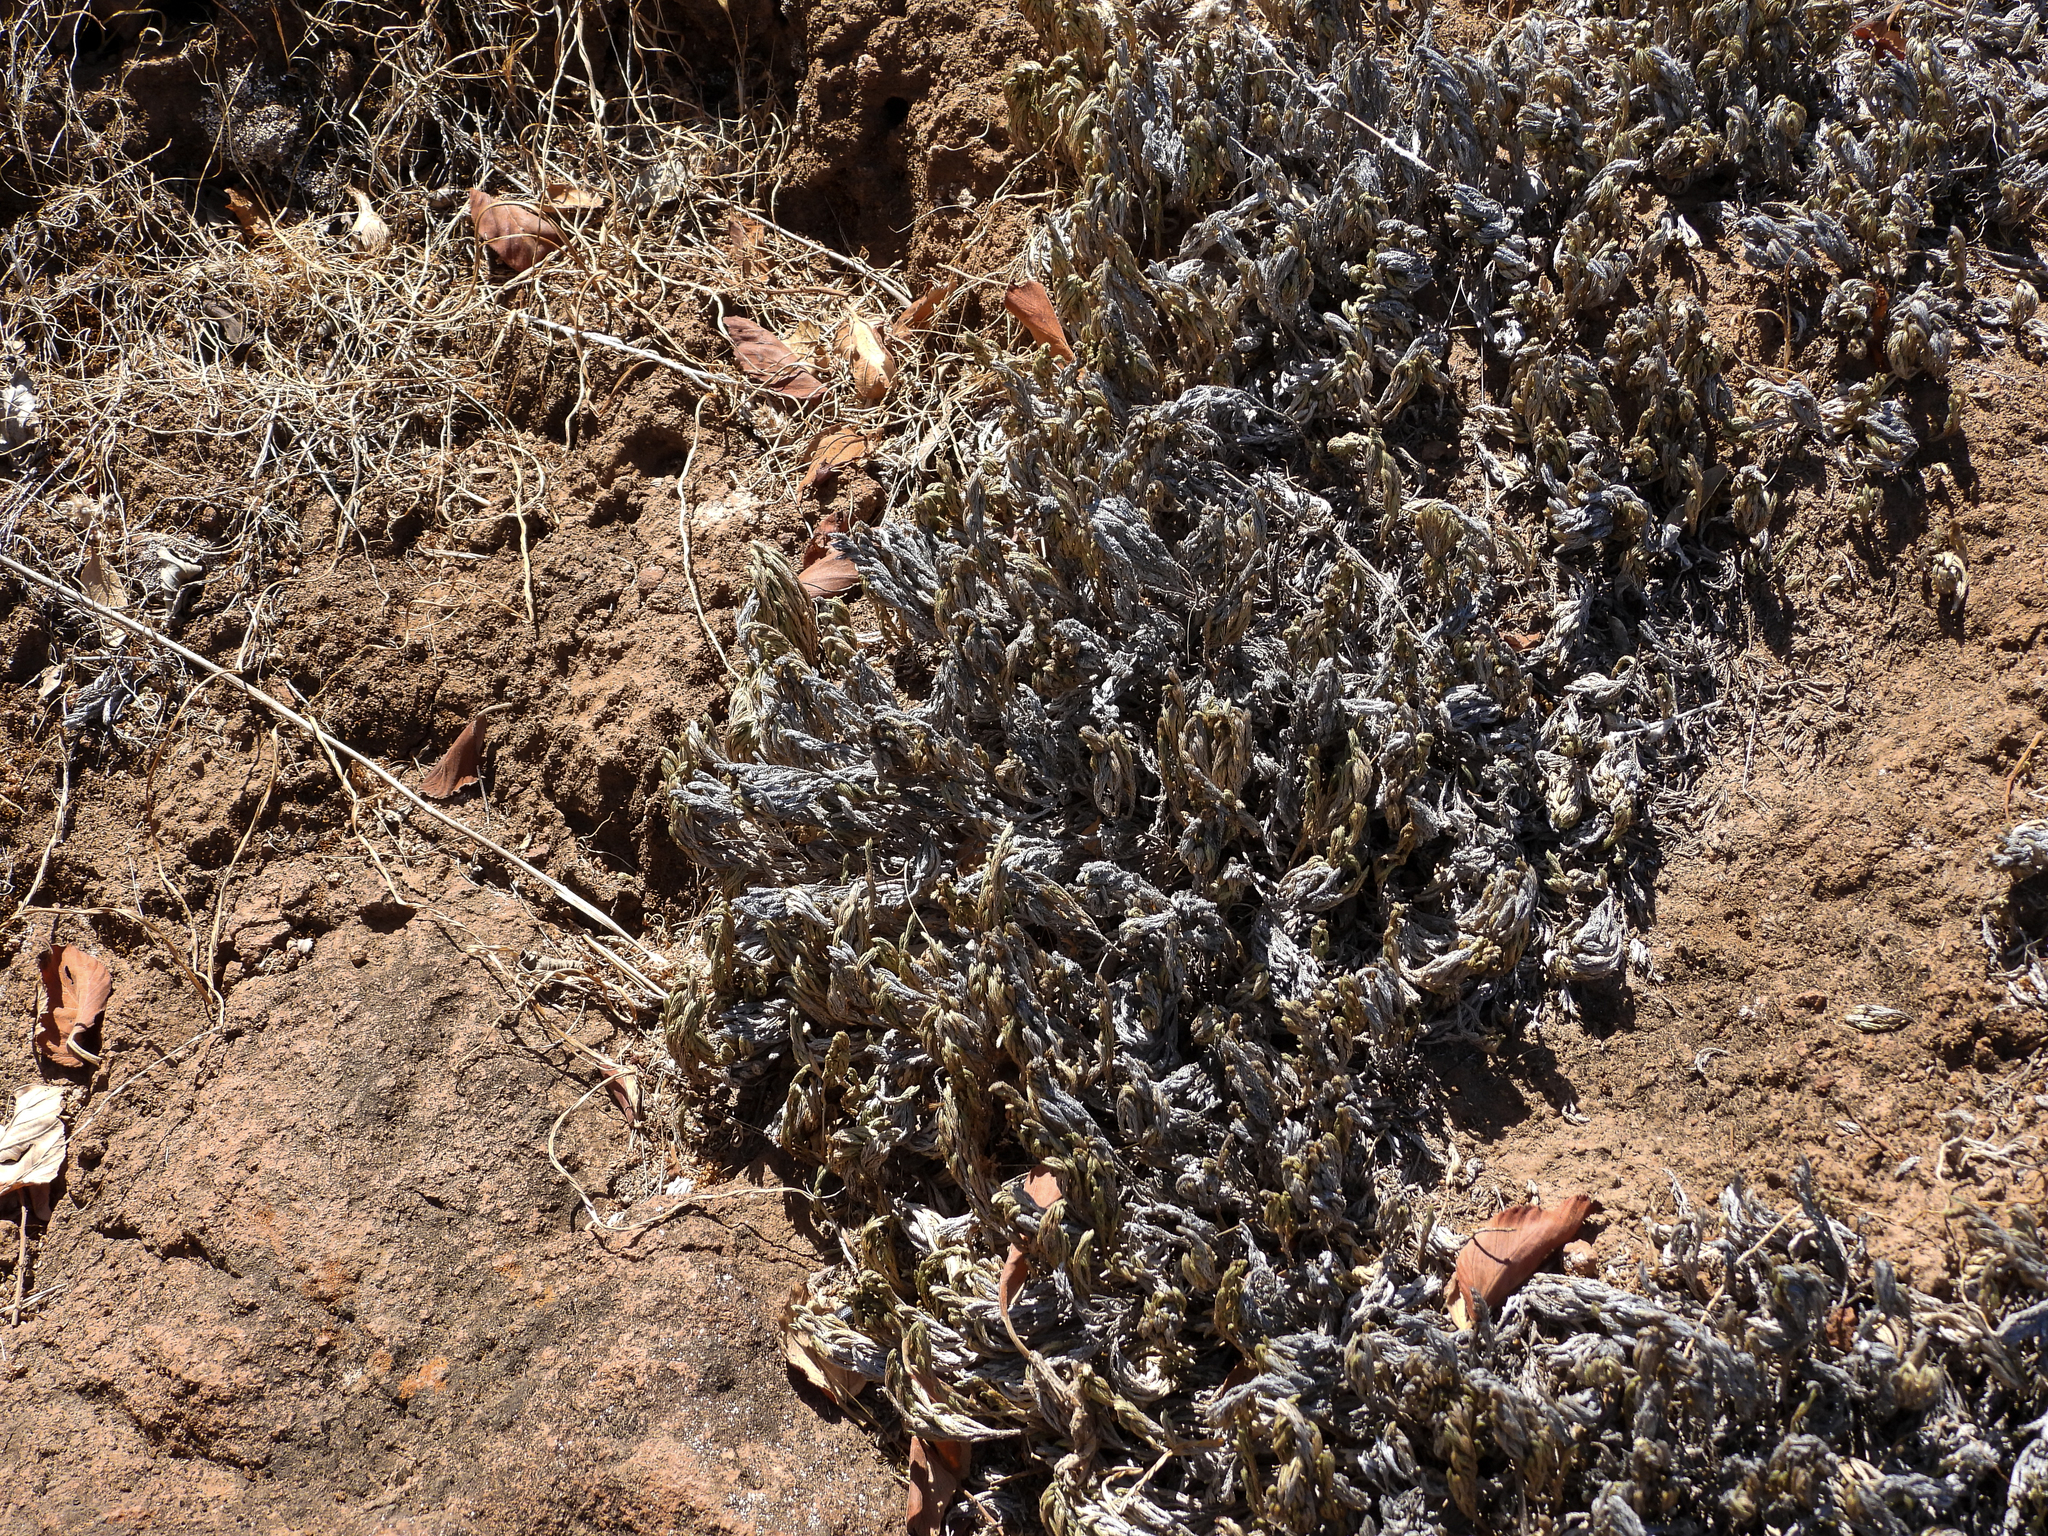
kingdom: Plantae
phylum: Tracheophyta
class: Lycopodiopsida
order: Selaginellales
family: Selaginellaceae
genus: Selaginella
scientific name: Selaginella bigelovii
